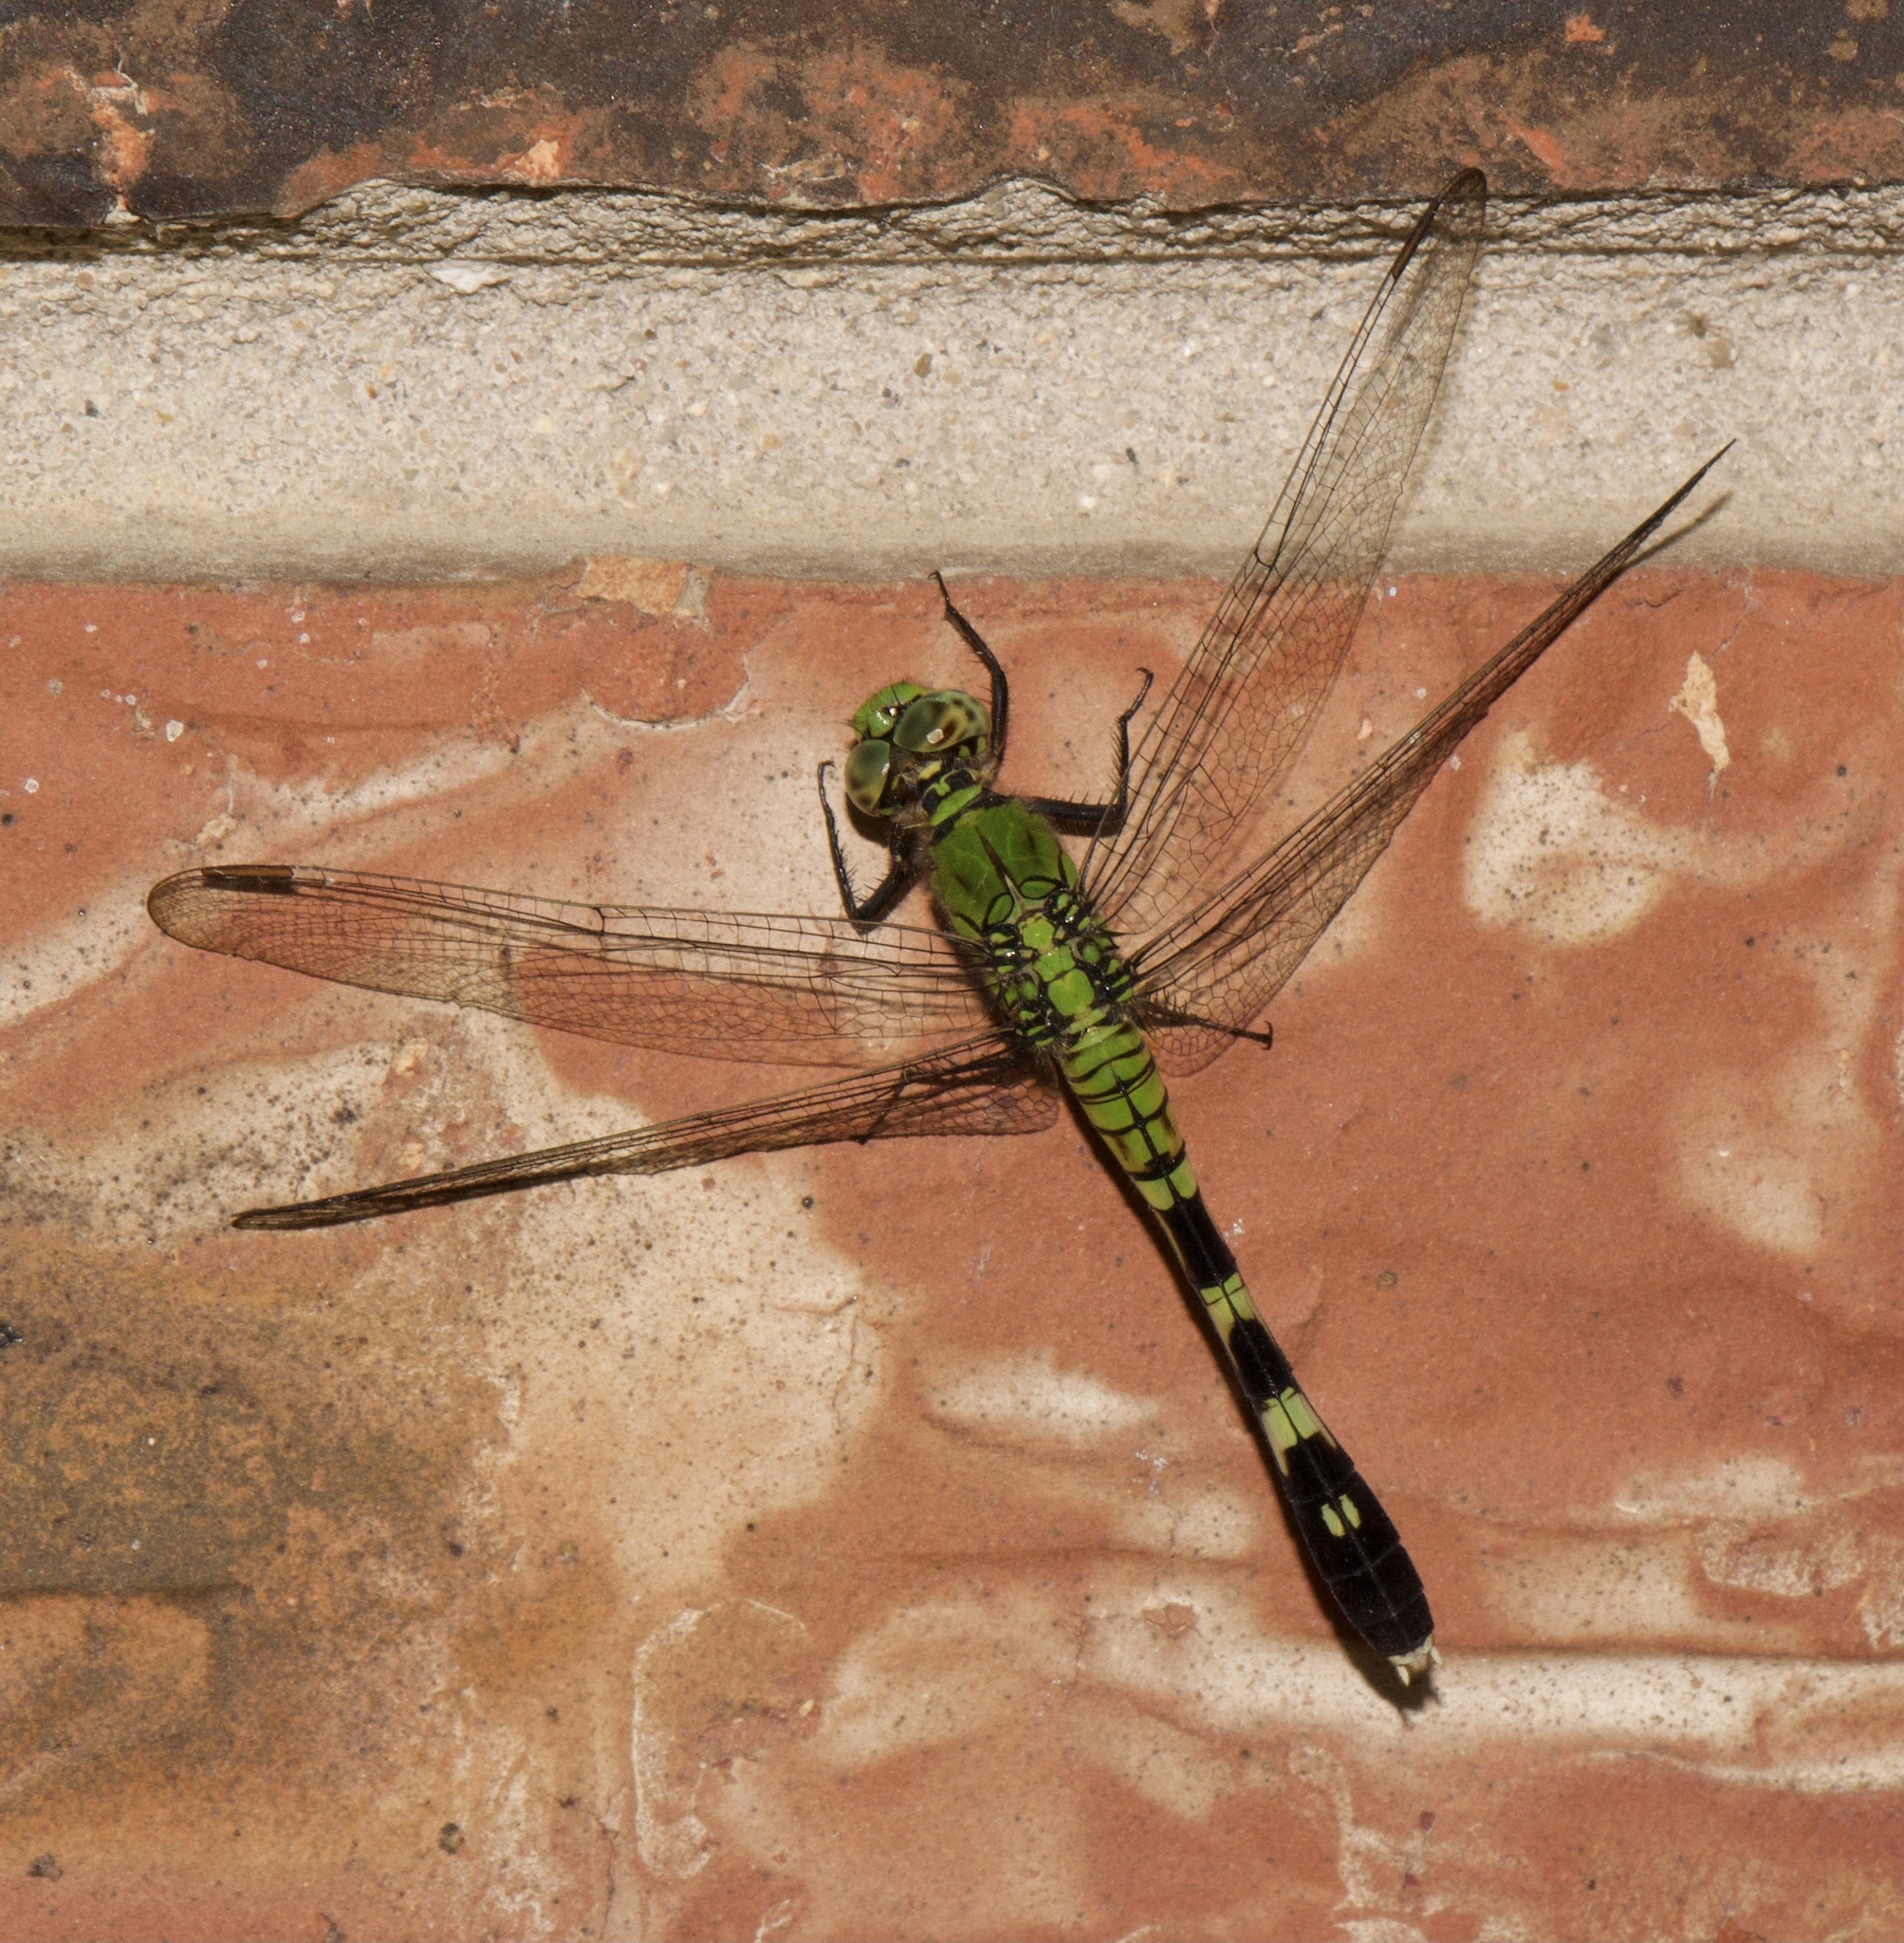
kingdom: Animalia
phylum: Arthropoda
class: Insecta
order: Odonata
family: Libellulidae
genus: Erythemis
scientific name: Erythemis simplicicollis
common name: Eastern pondhawk
